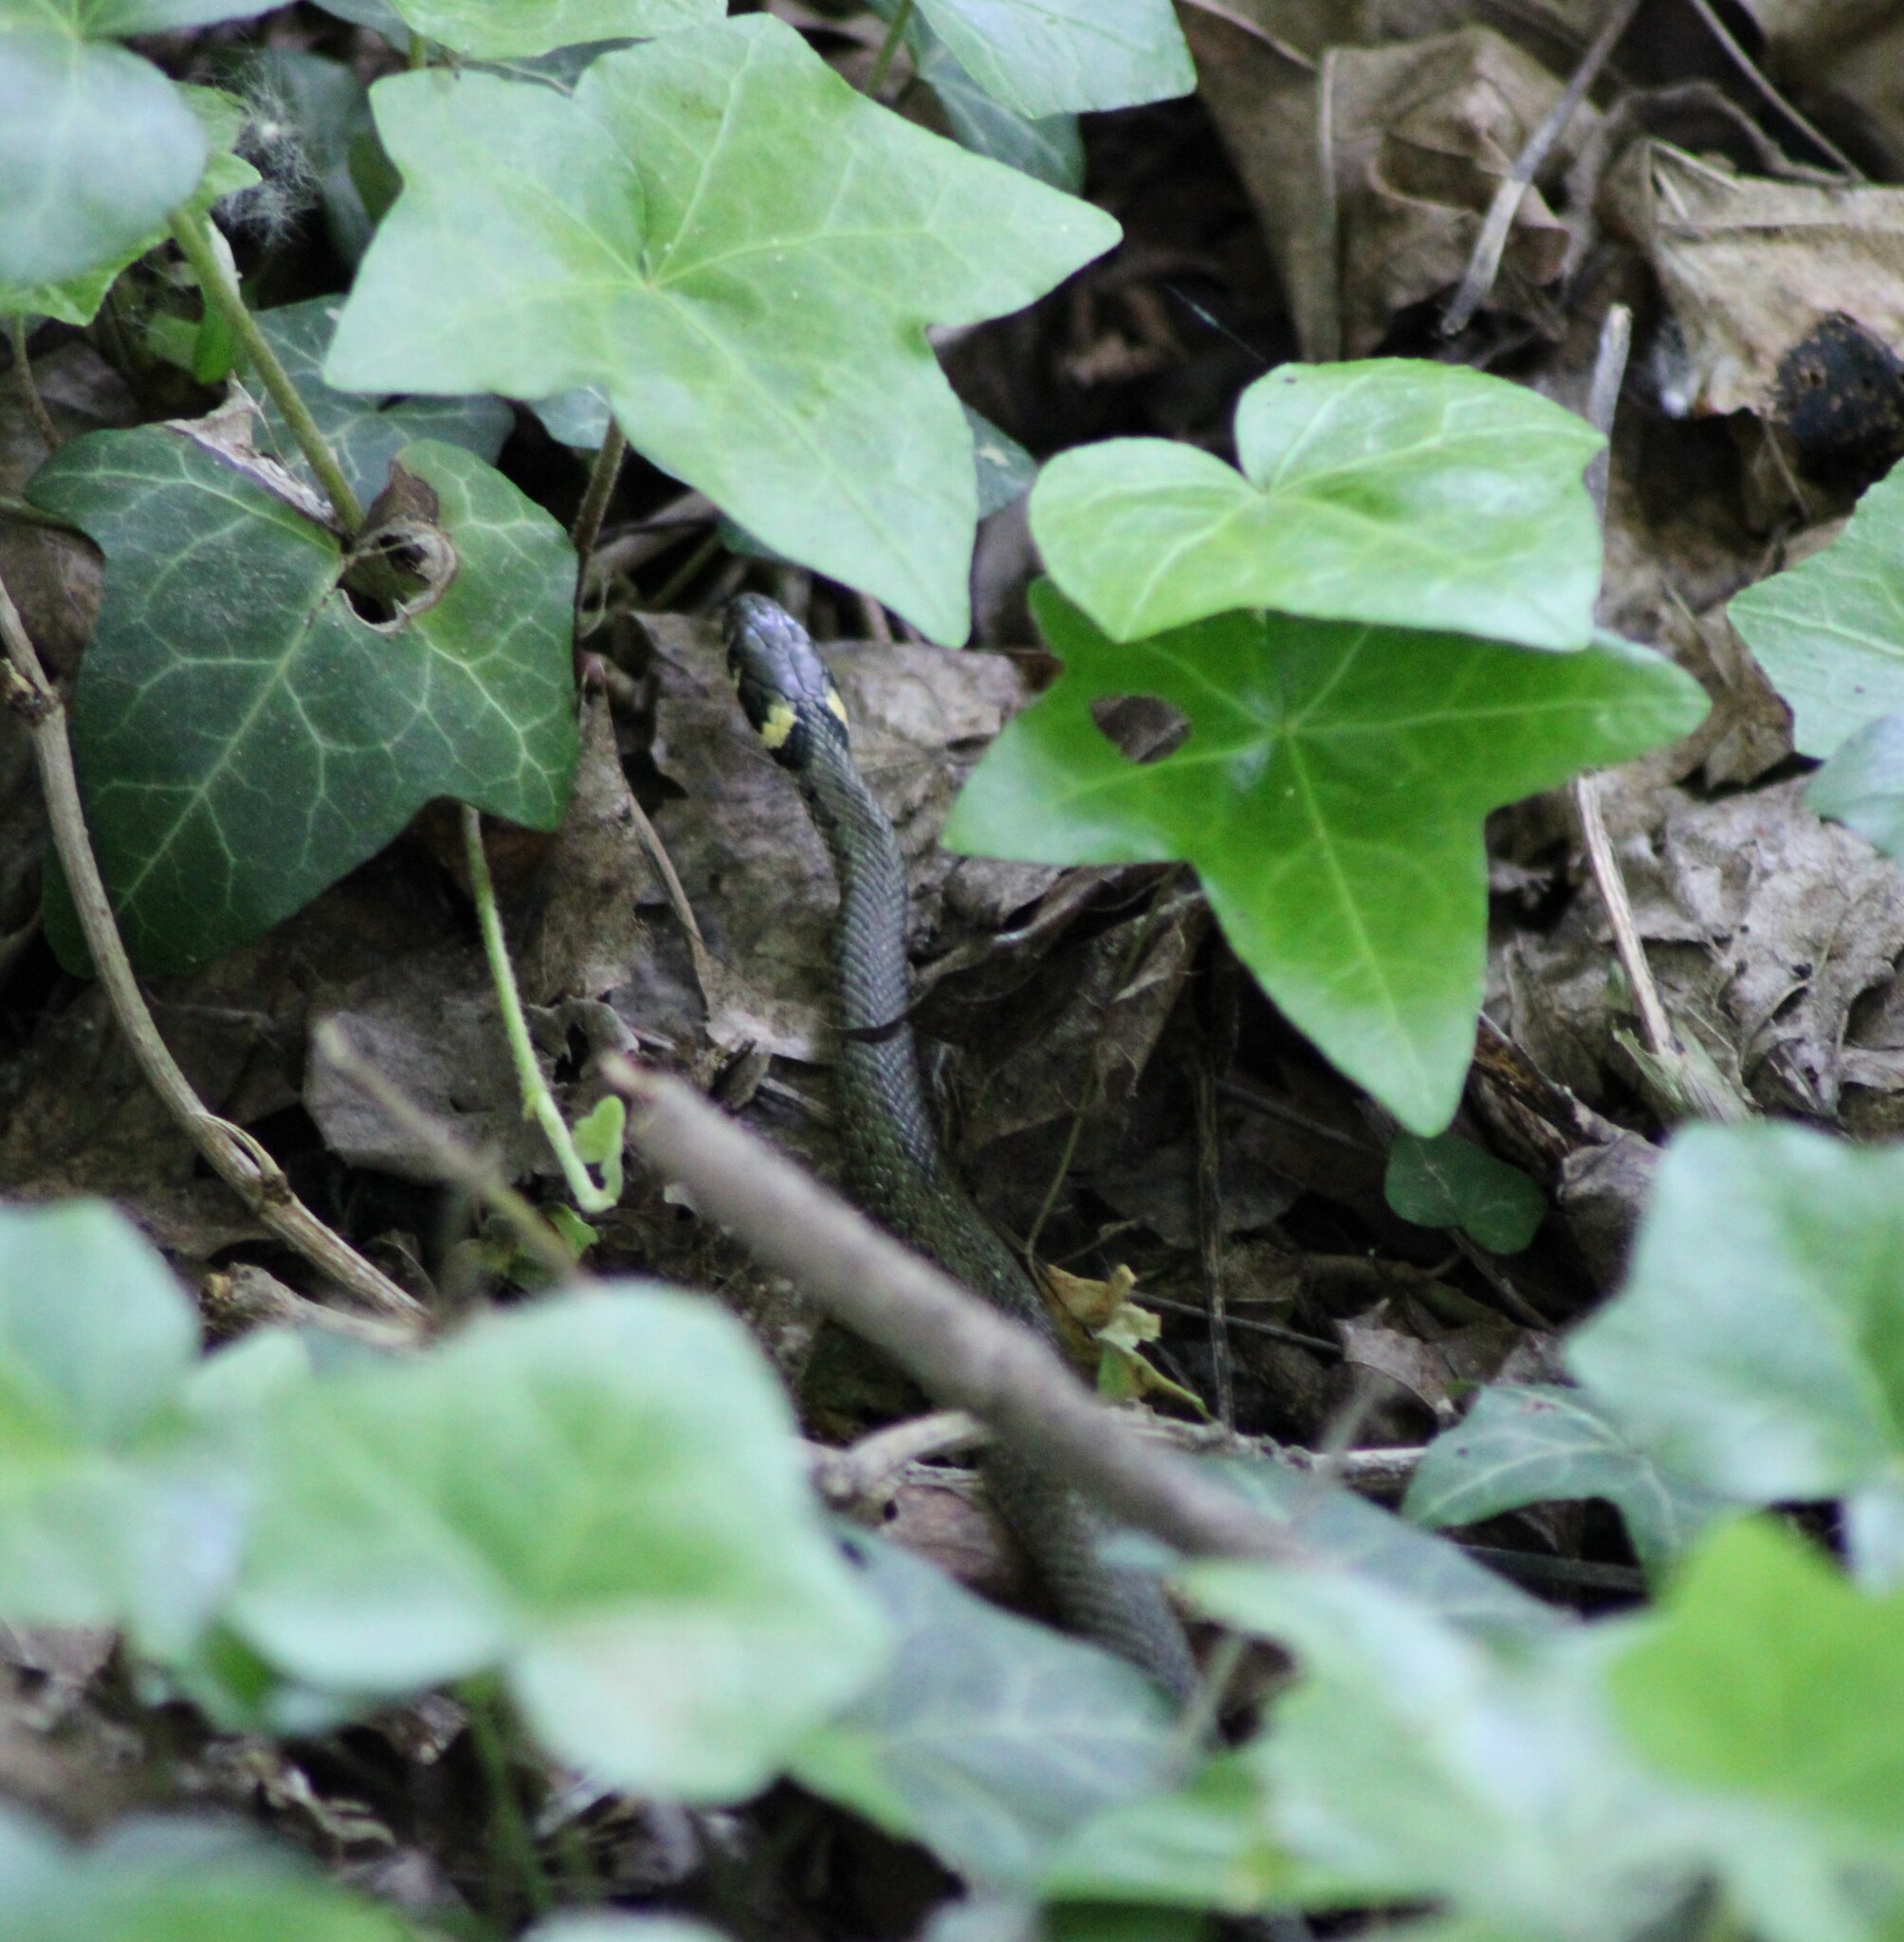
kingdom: Animalia
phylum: Chordata
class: Squamata
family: Colubridae
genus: Natrix
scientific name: Natrix natrix
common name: Grass snake
